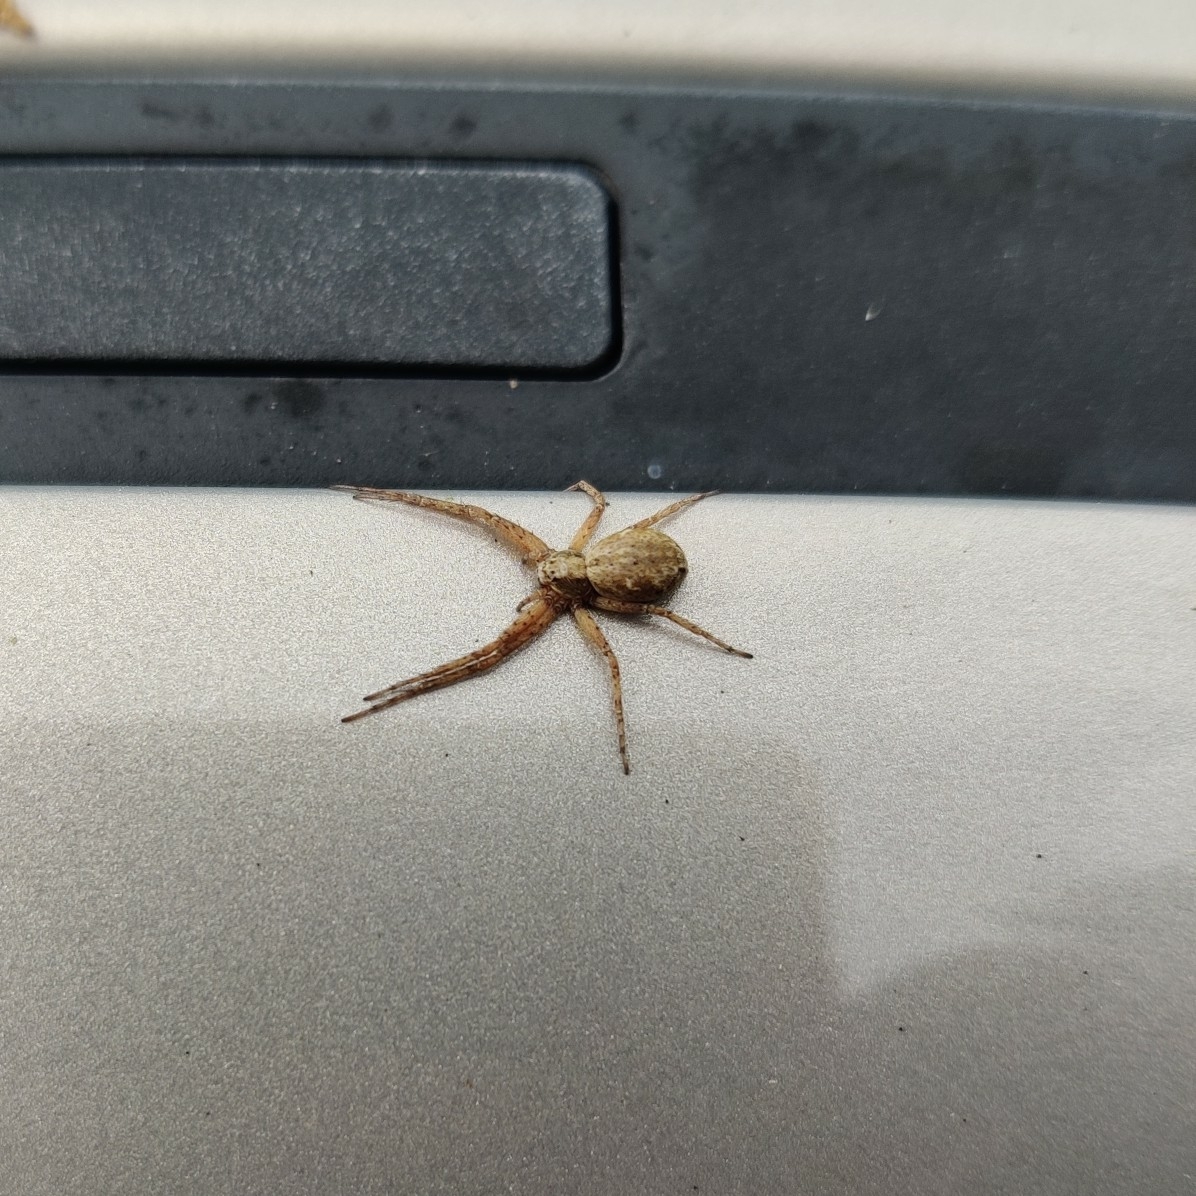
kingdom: Animalia
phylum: Arthropoda
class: Arachnida
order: Araneae
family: Philodromidae
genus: Philodromus
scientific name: Philodromus
